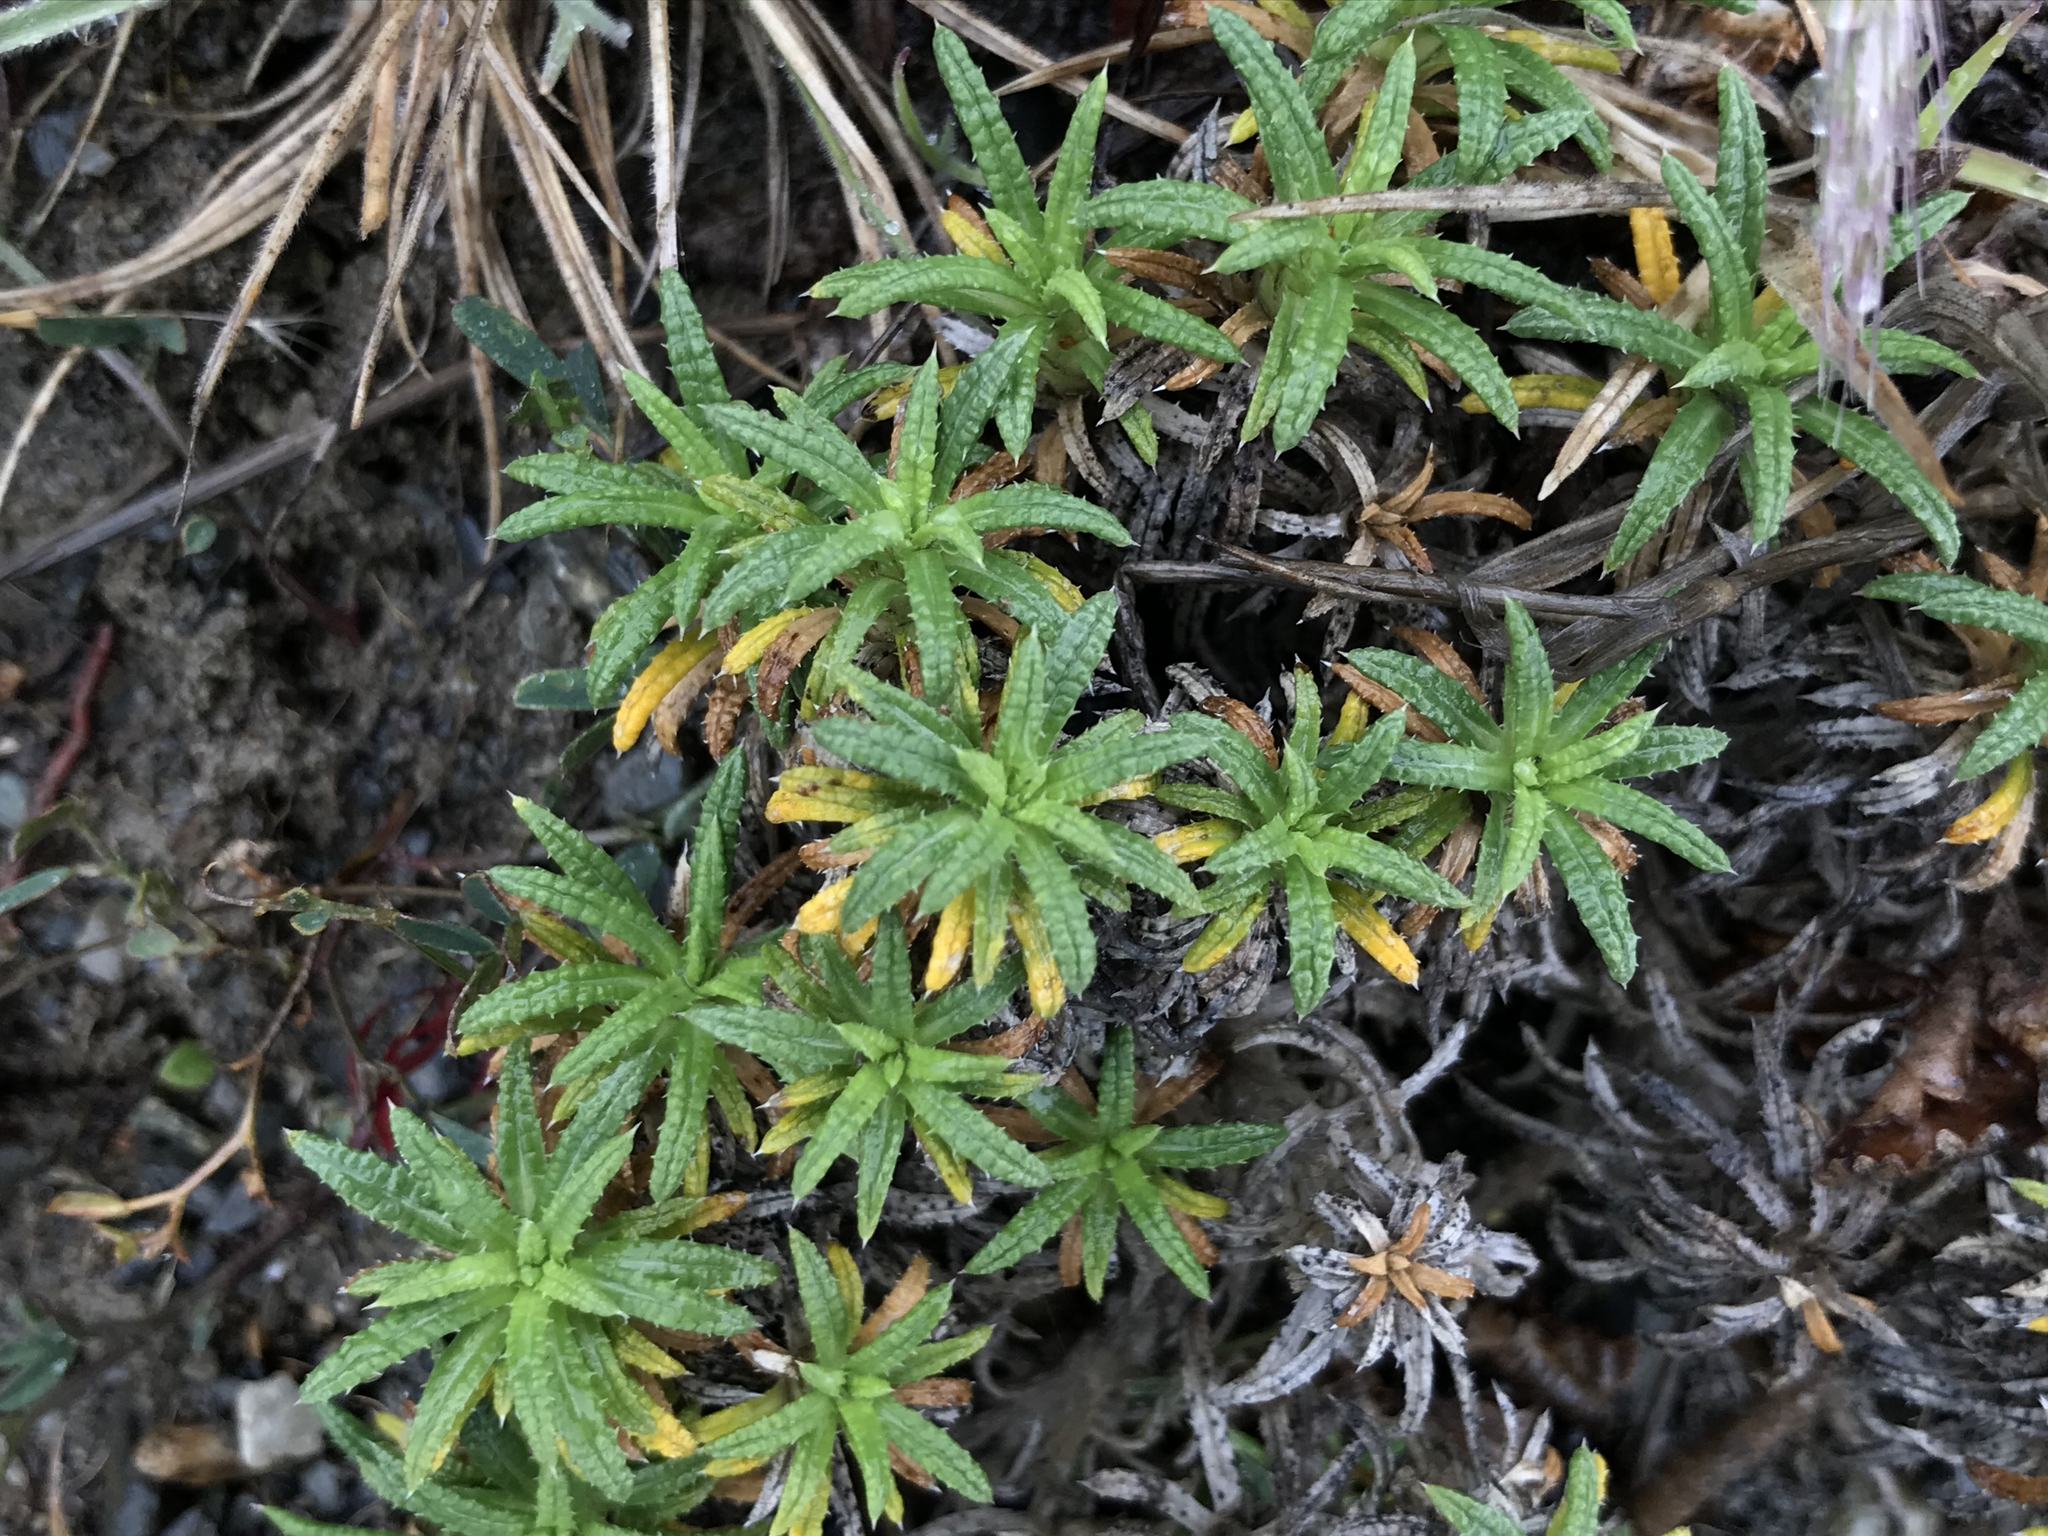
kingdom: Plantae
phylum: Tracheophyta
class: Magnoliopsida
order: Asterales
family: Asteraceae
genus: Perezia
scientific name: Perezia recurvata
